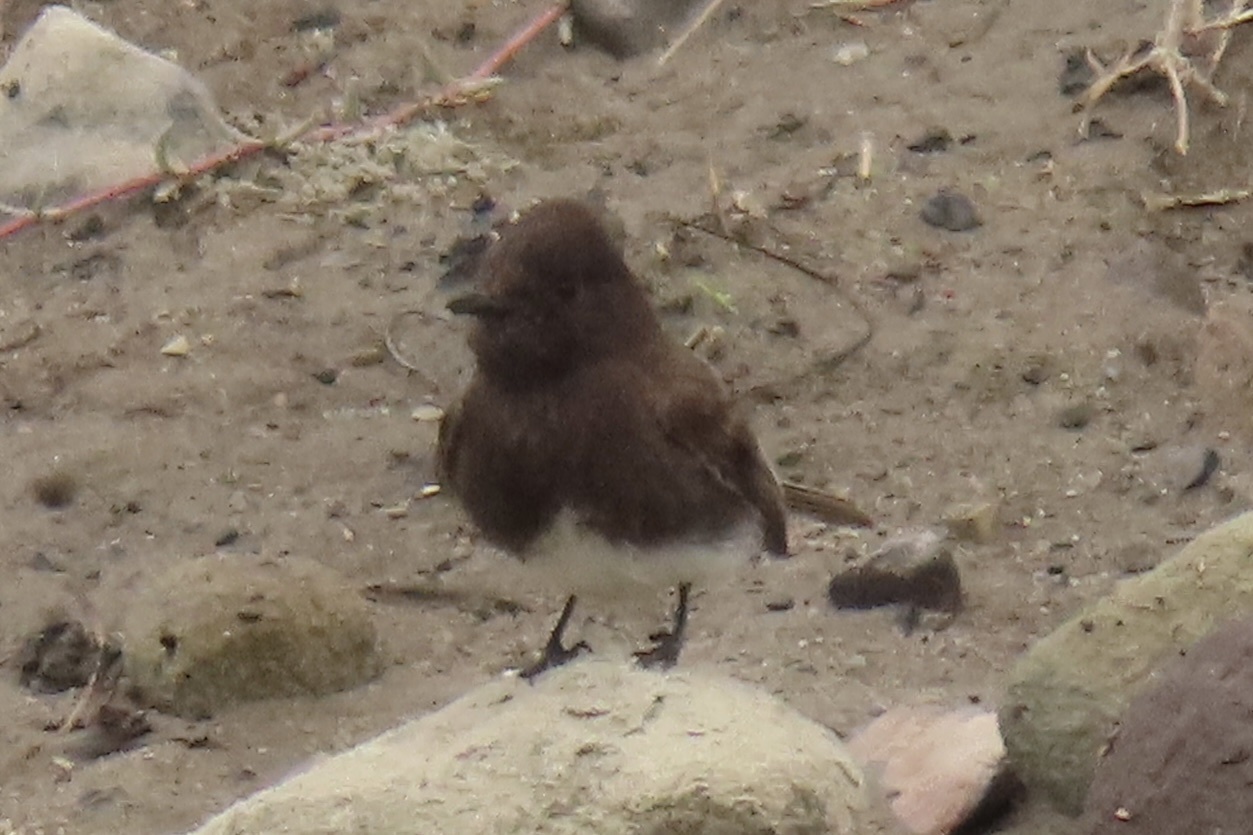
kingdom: Animalia
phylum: Chordata
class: Aves
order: Passeriformes
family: Tyrannidae
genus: Sayornis
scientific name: Sayornis nigricans
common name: Black phoebe
